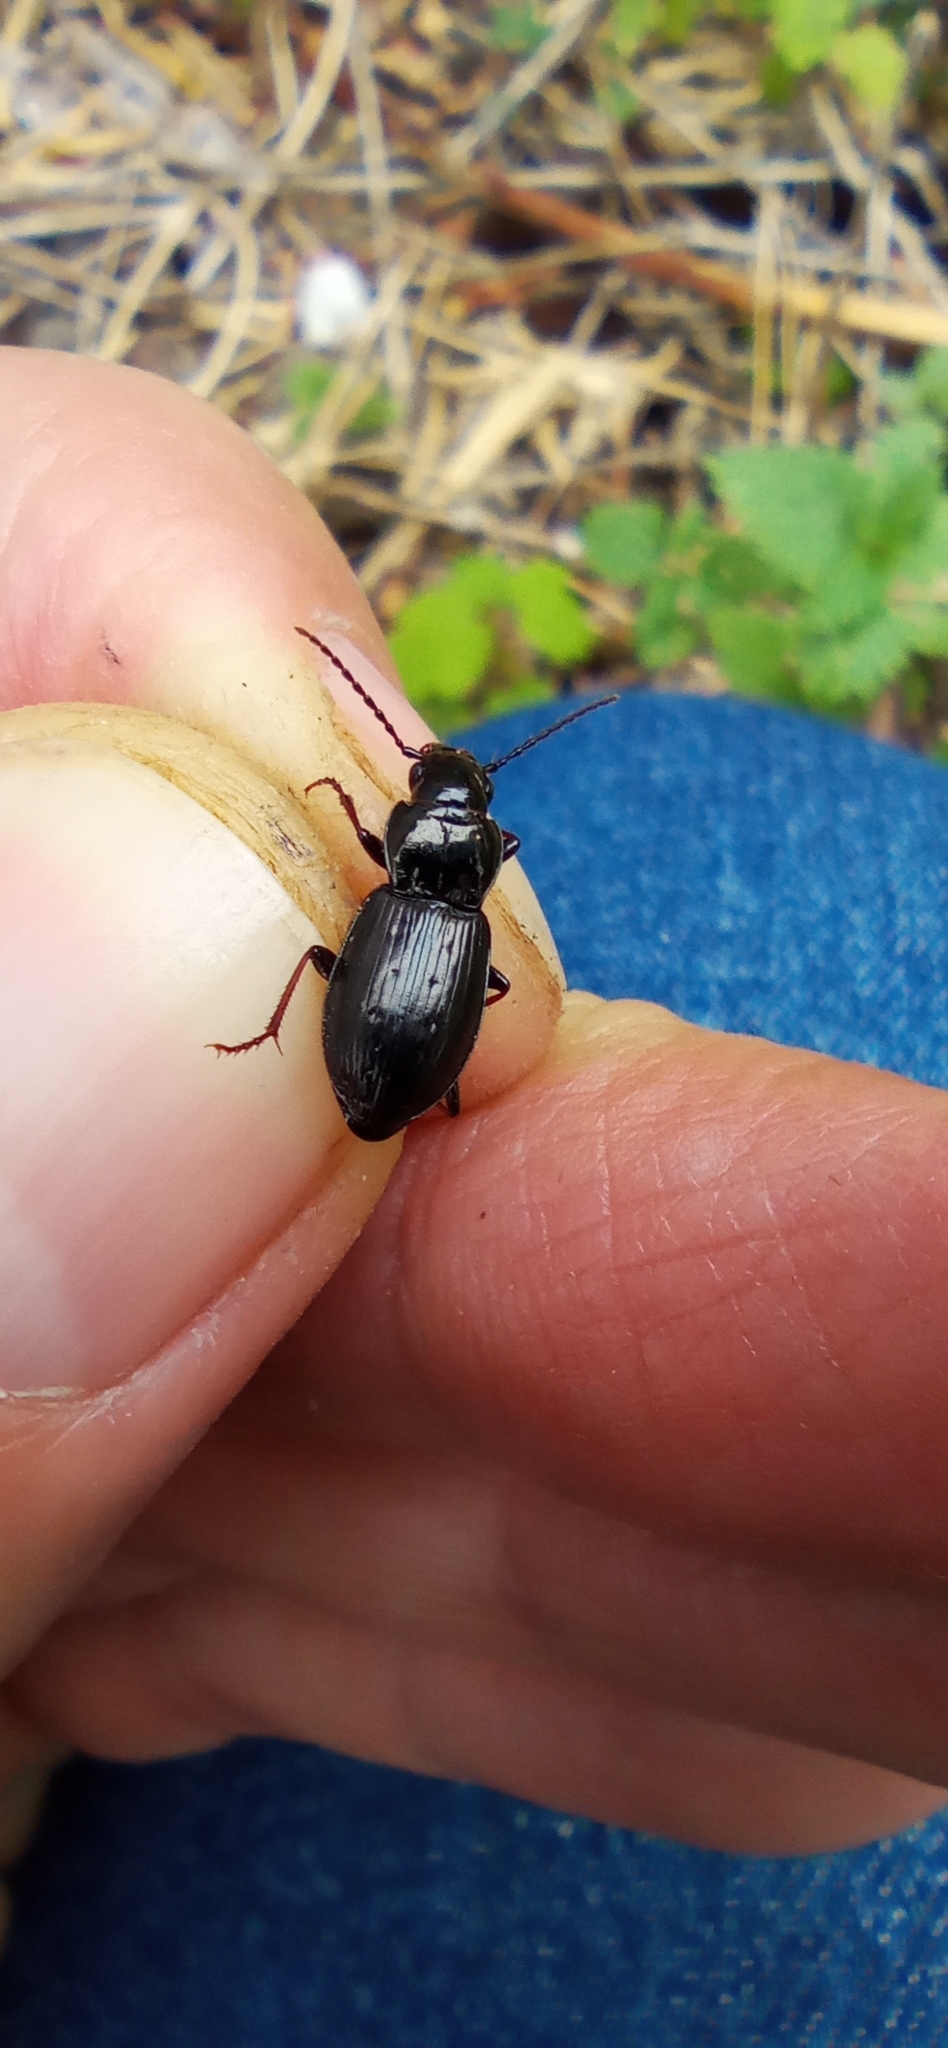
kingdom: Animalia
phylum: Arthropoda
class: Insecta
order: Coleoptera
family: Carabidae
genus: Pterostichus
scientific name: Pterostichus oblongopunctatus
